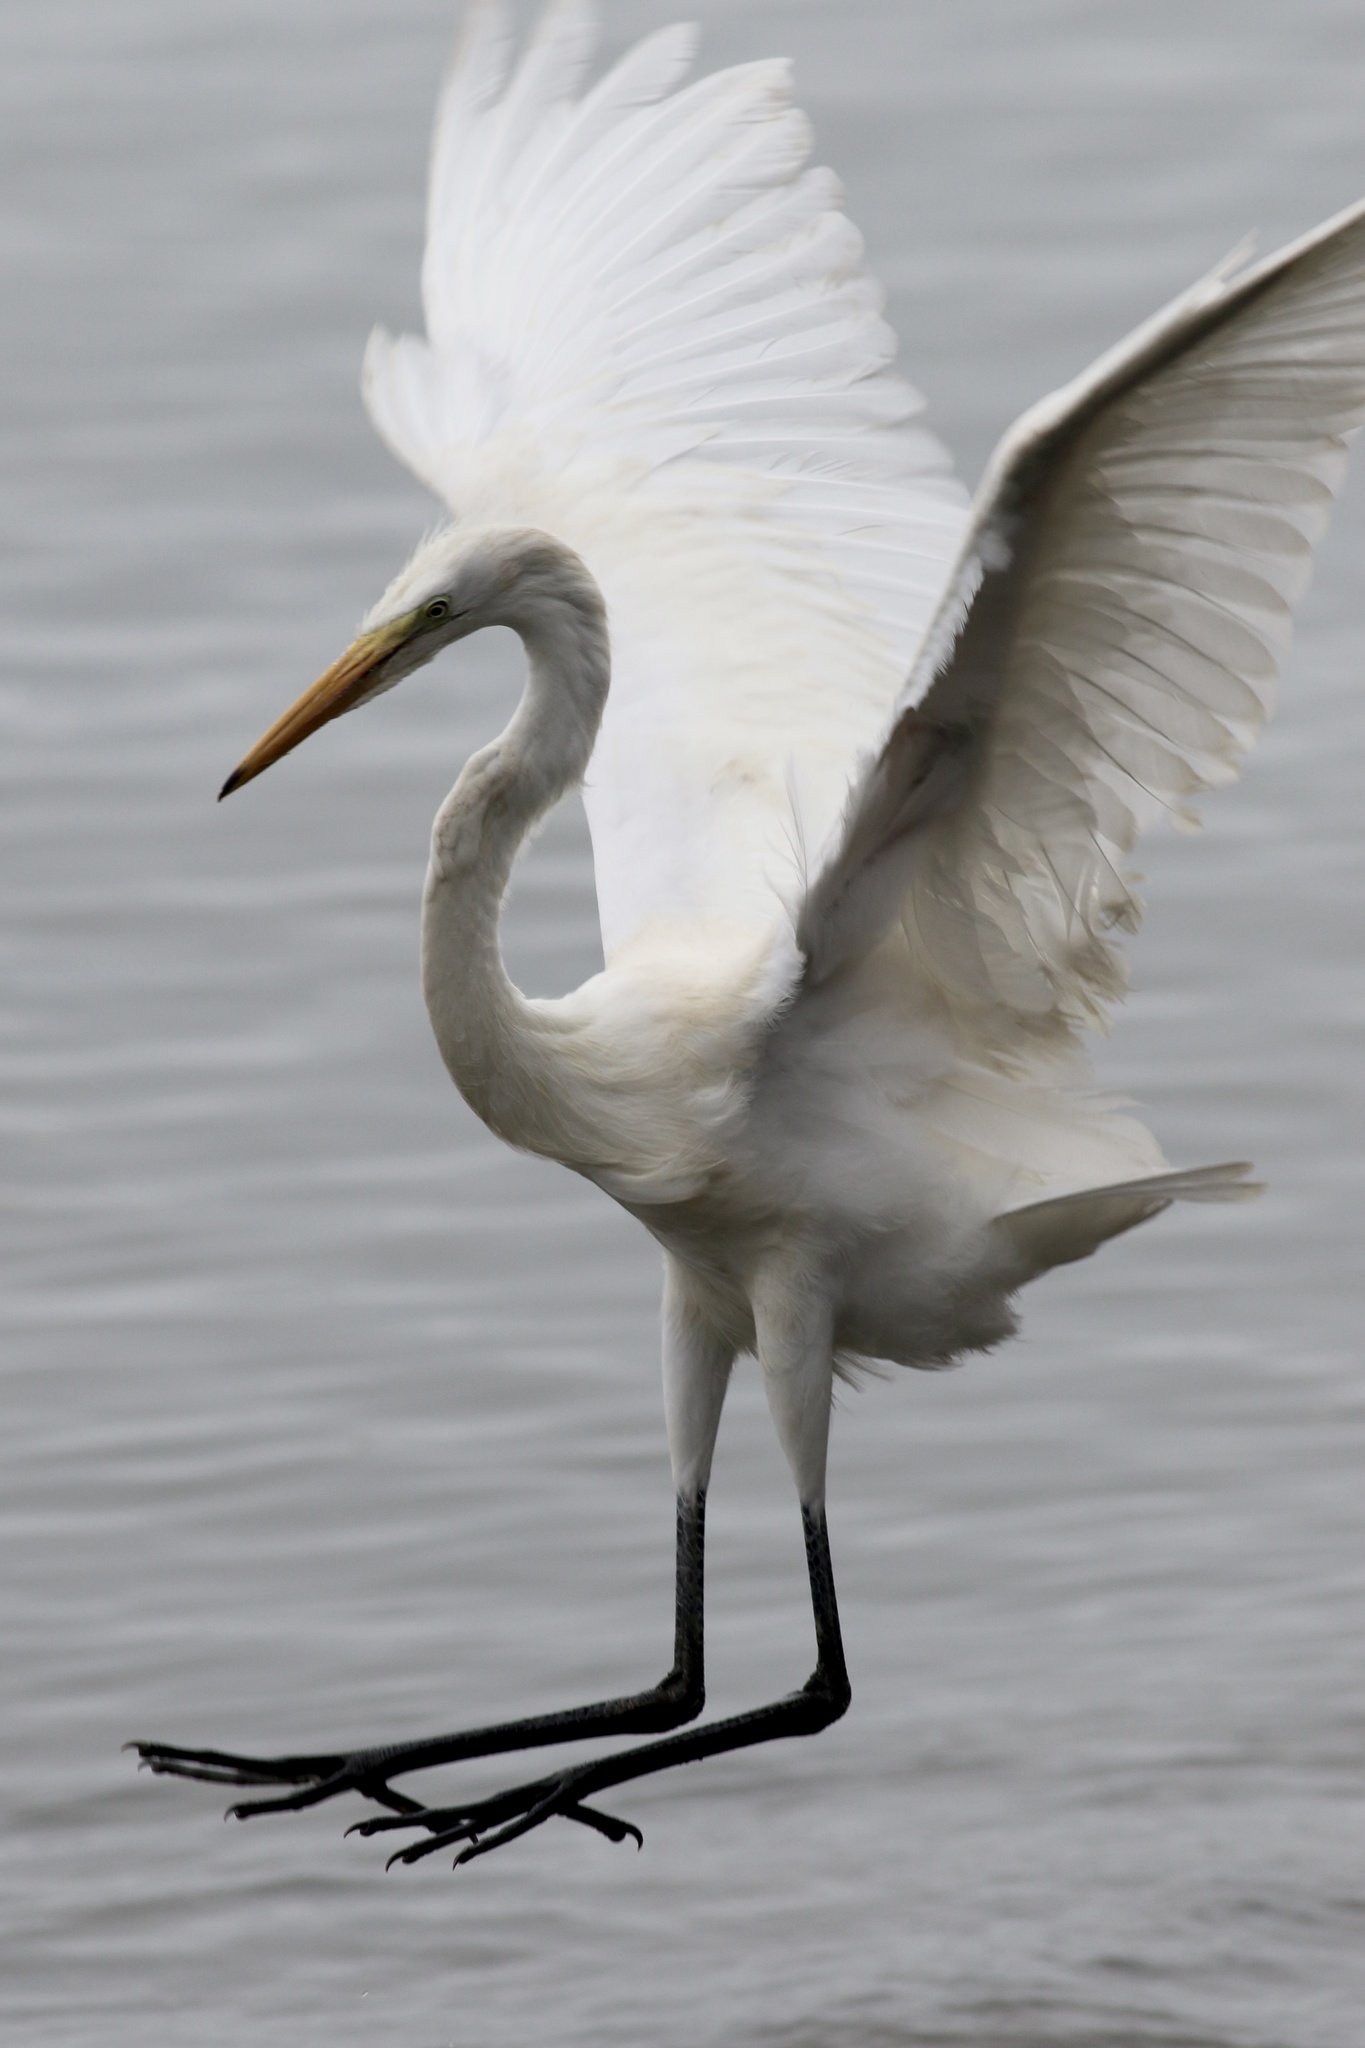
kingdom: Animalia
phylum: Chordata
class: Aves
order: Pelecaniformes
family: Ardeidae
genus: Ardea
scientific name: Ardea alba
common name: Great egret
